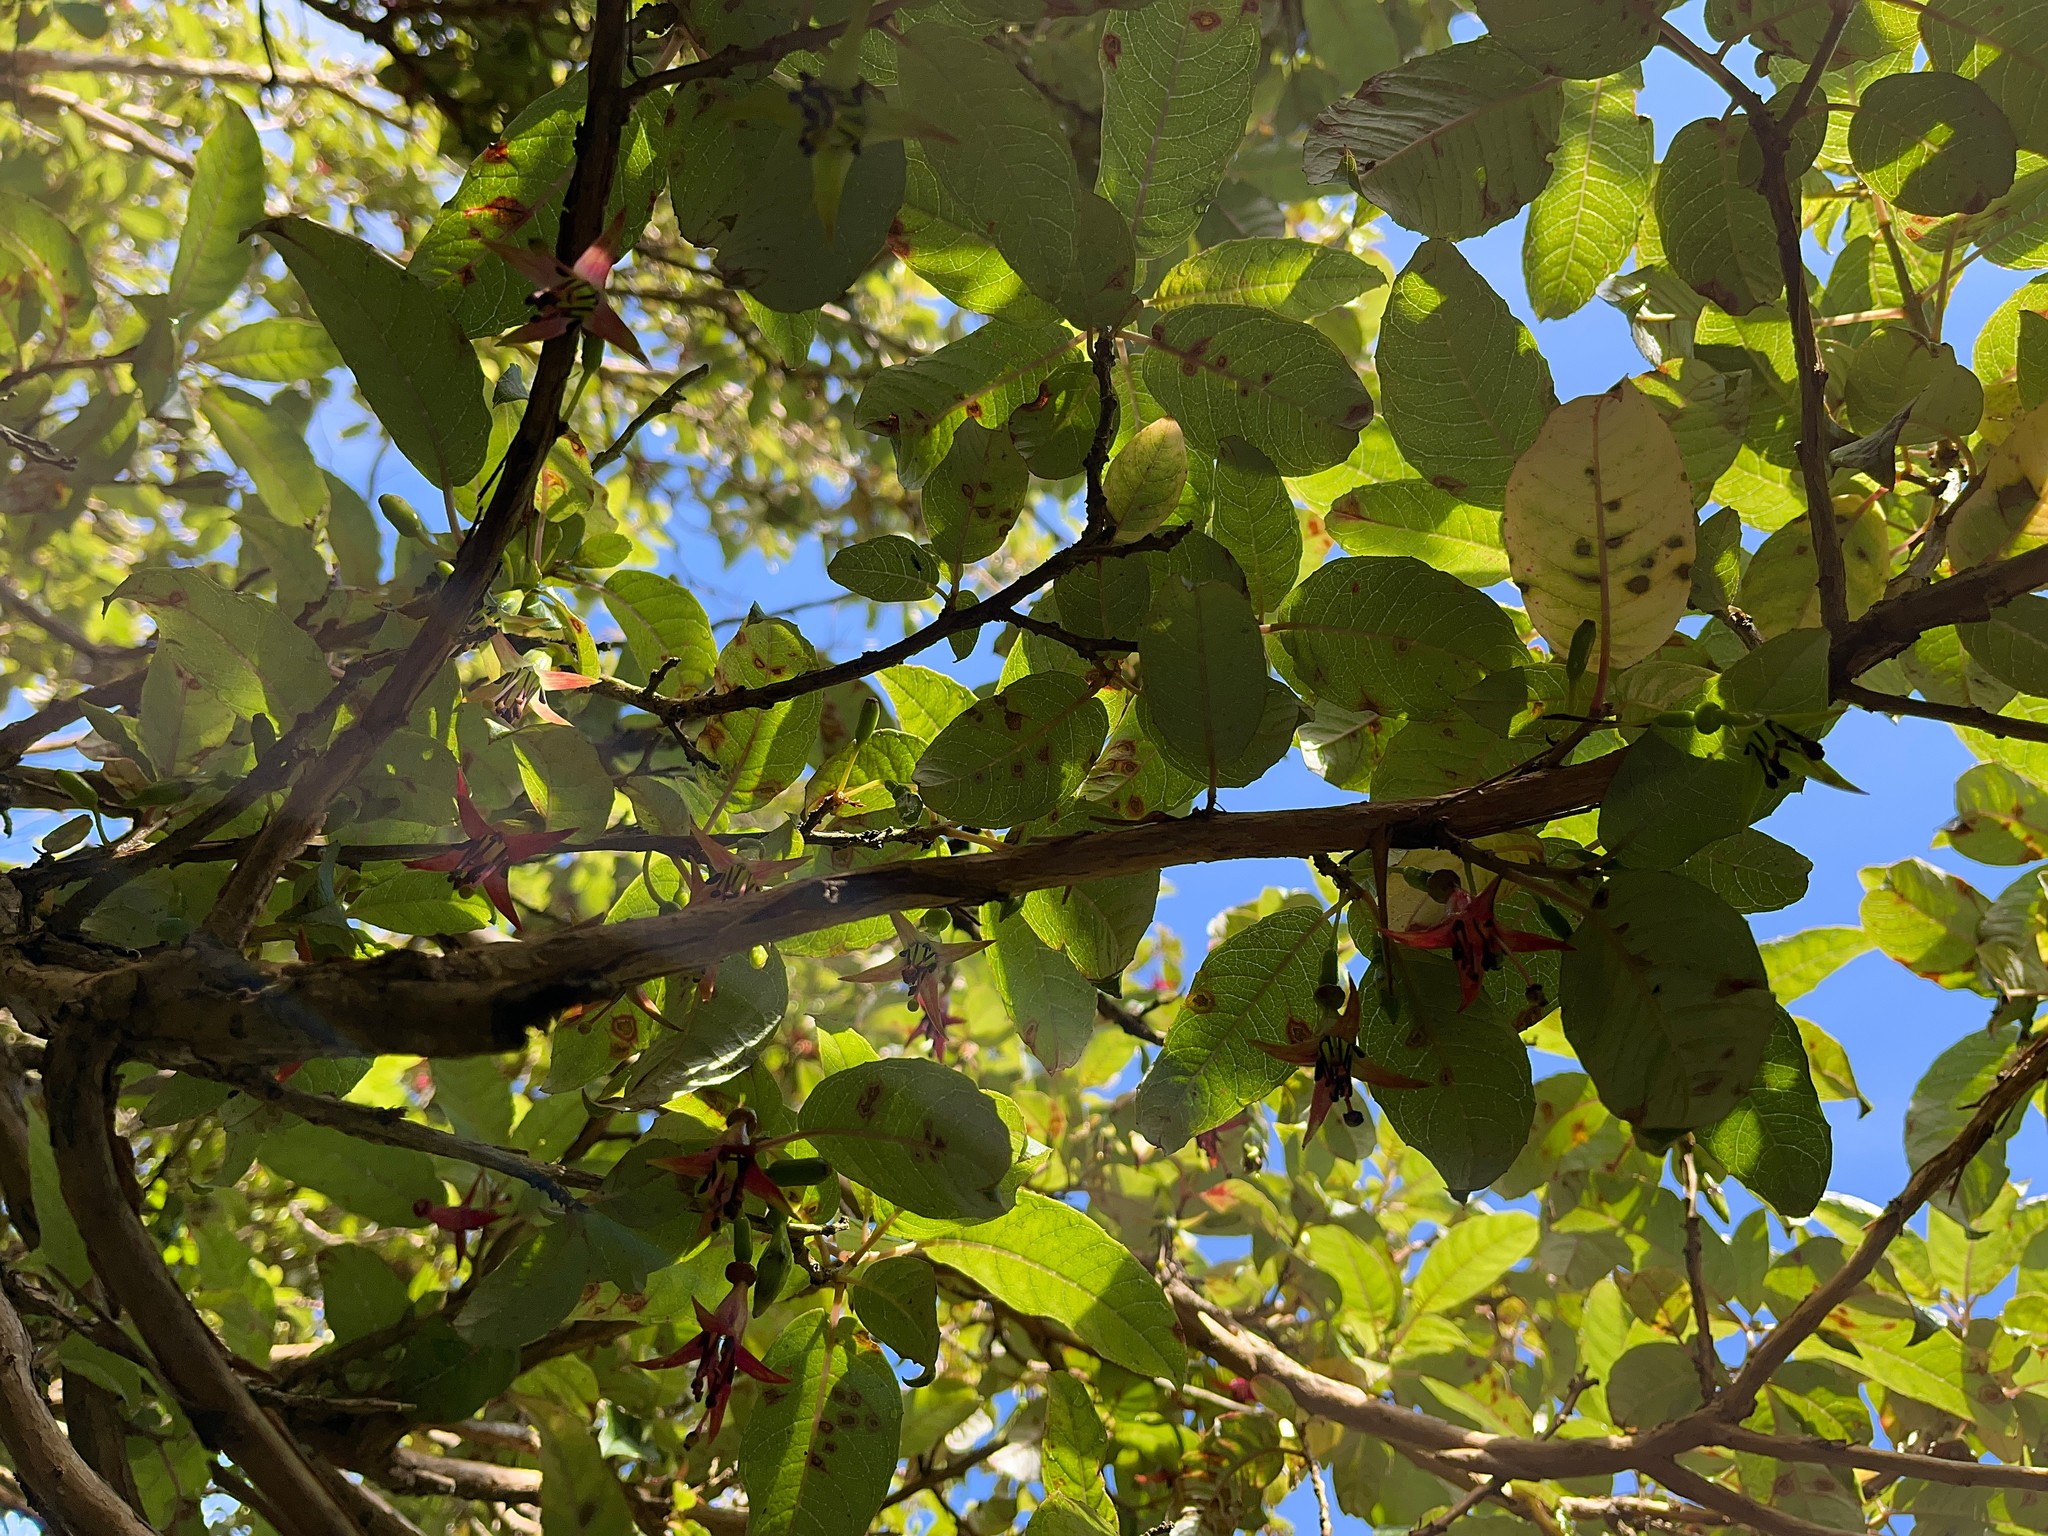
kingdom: Plantae
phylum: Tracheophyta
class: Magnoliopsida
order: Myrtales
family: Onagraceae
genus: Fuchsia
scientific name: Fuchsia excorticata
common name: Tree fuchsia
